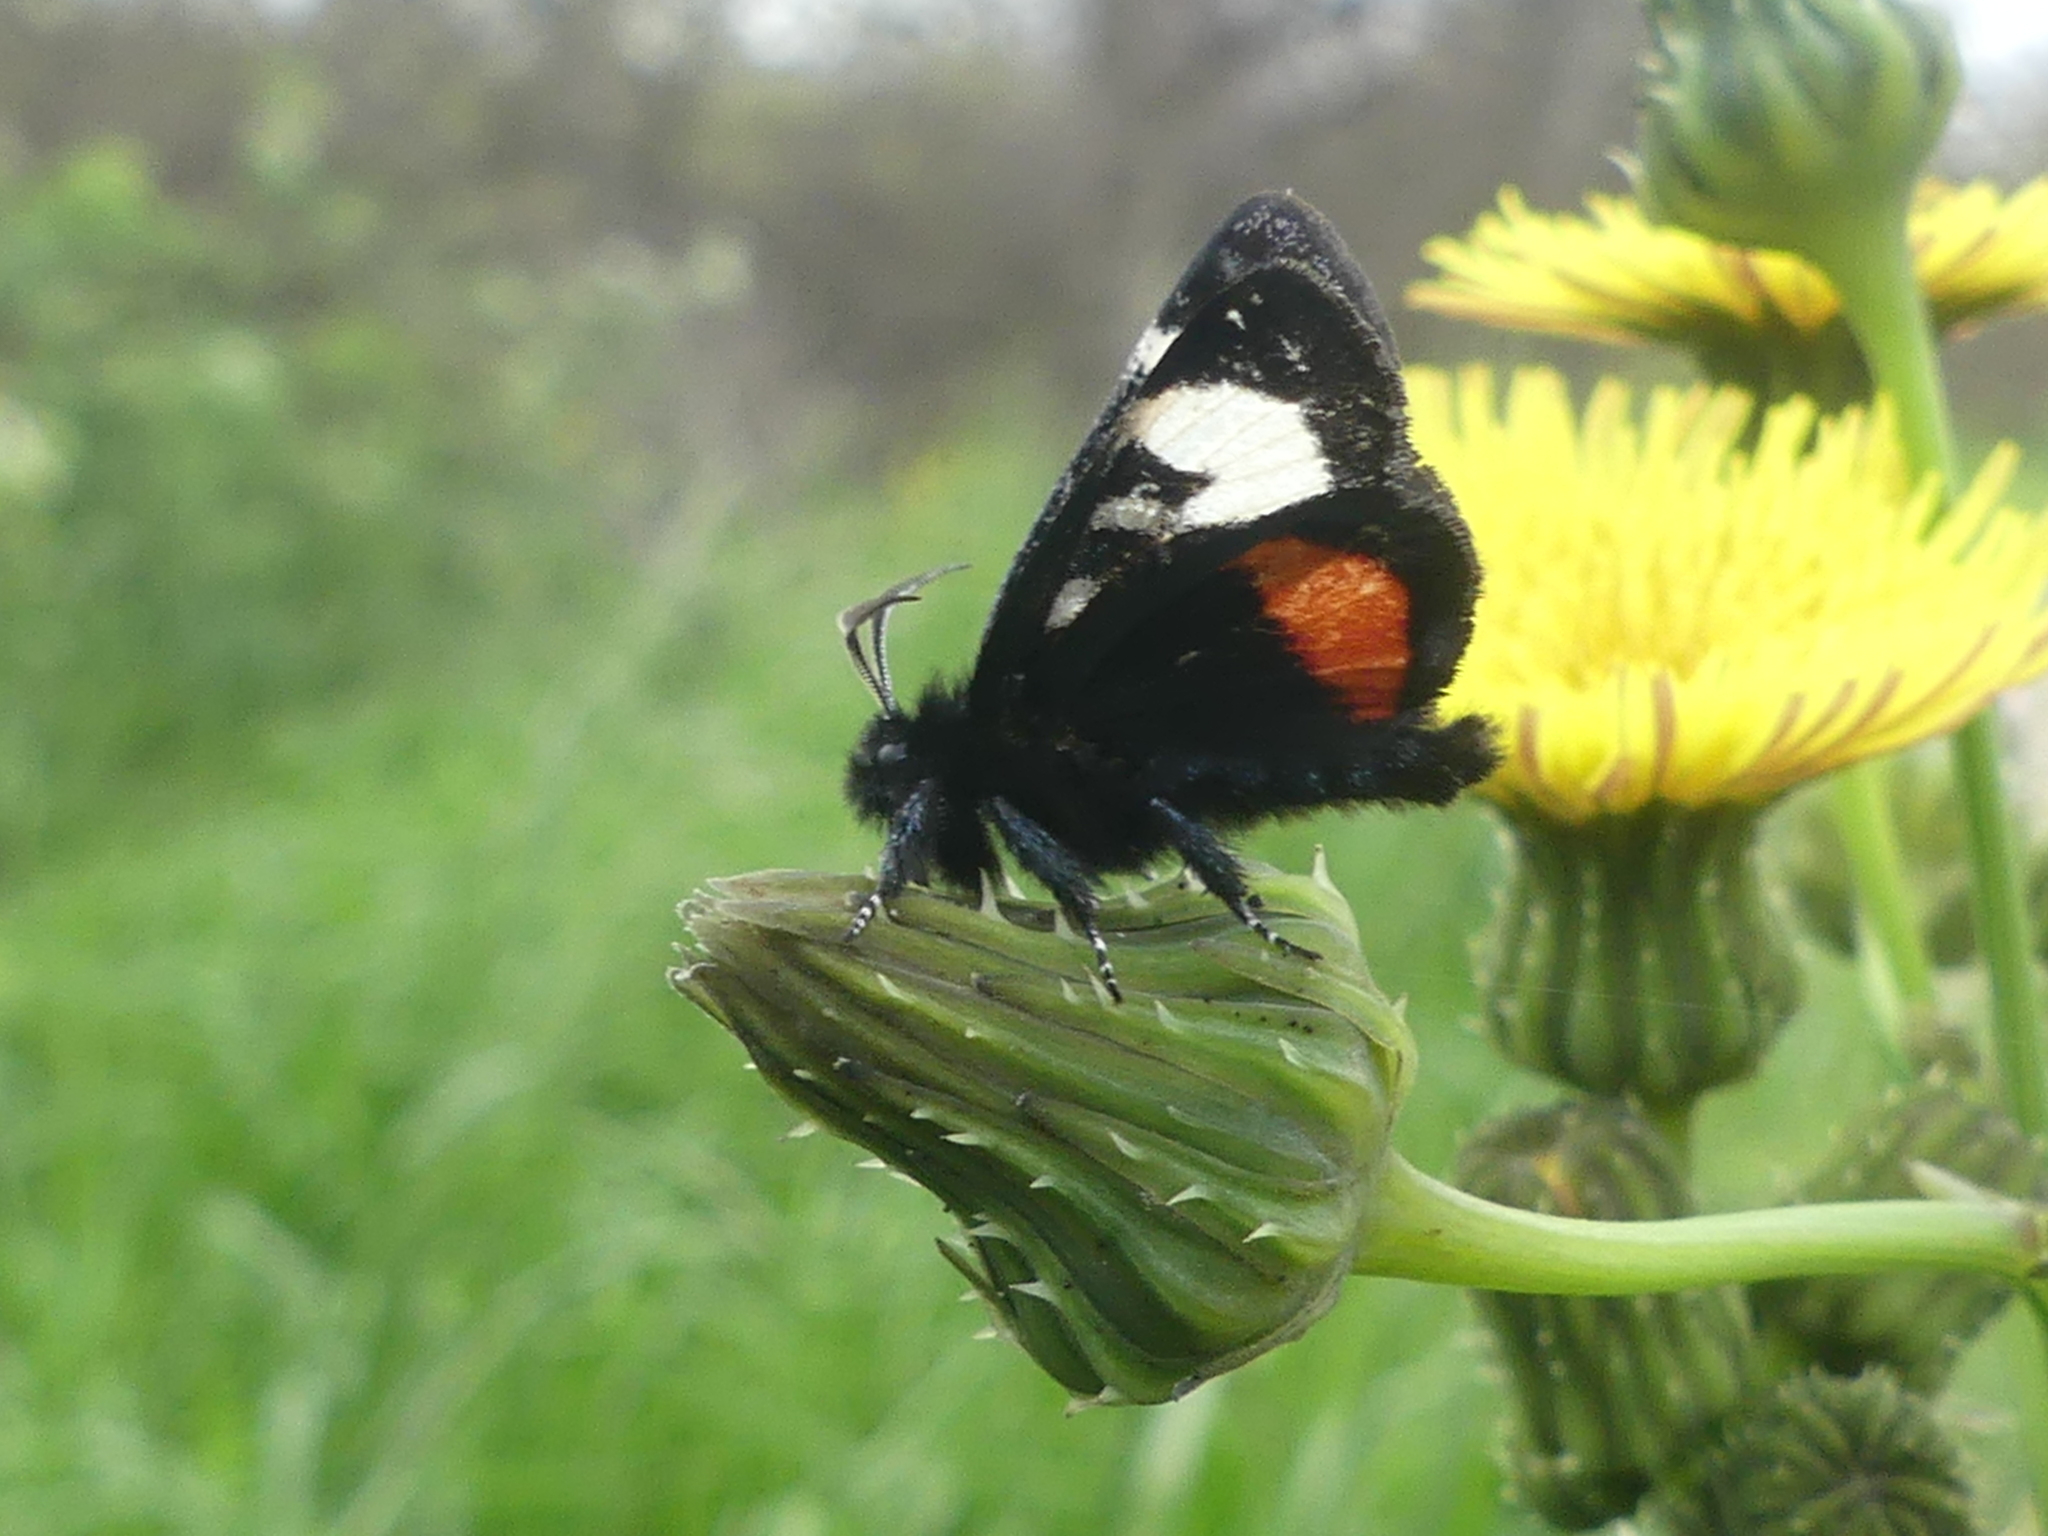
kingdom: Animalia
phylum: Arthropoda
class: Insecta
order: Lepidoptera
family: Noctuidae
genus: Psychomorpha
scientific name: Psychomorpha epimenis
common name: Grapevine epimenis moth
